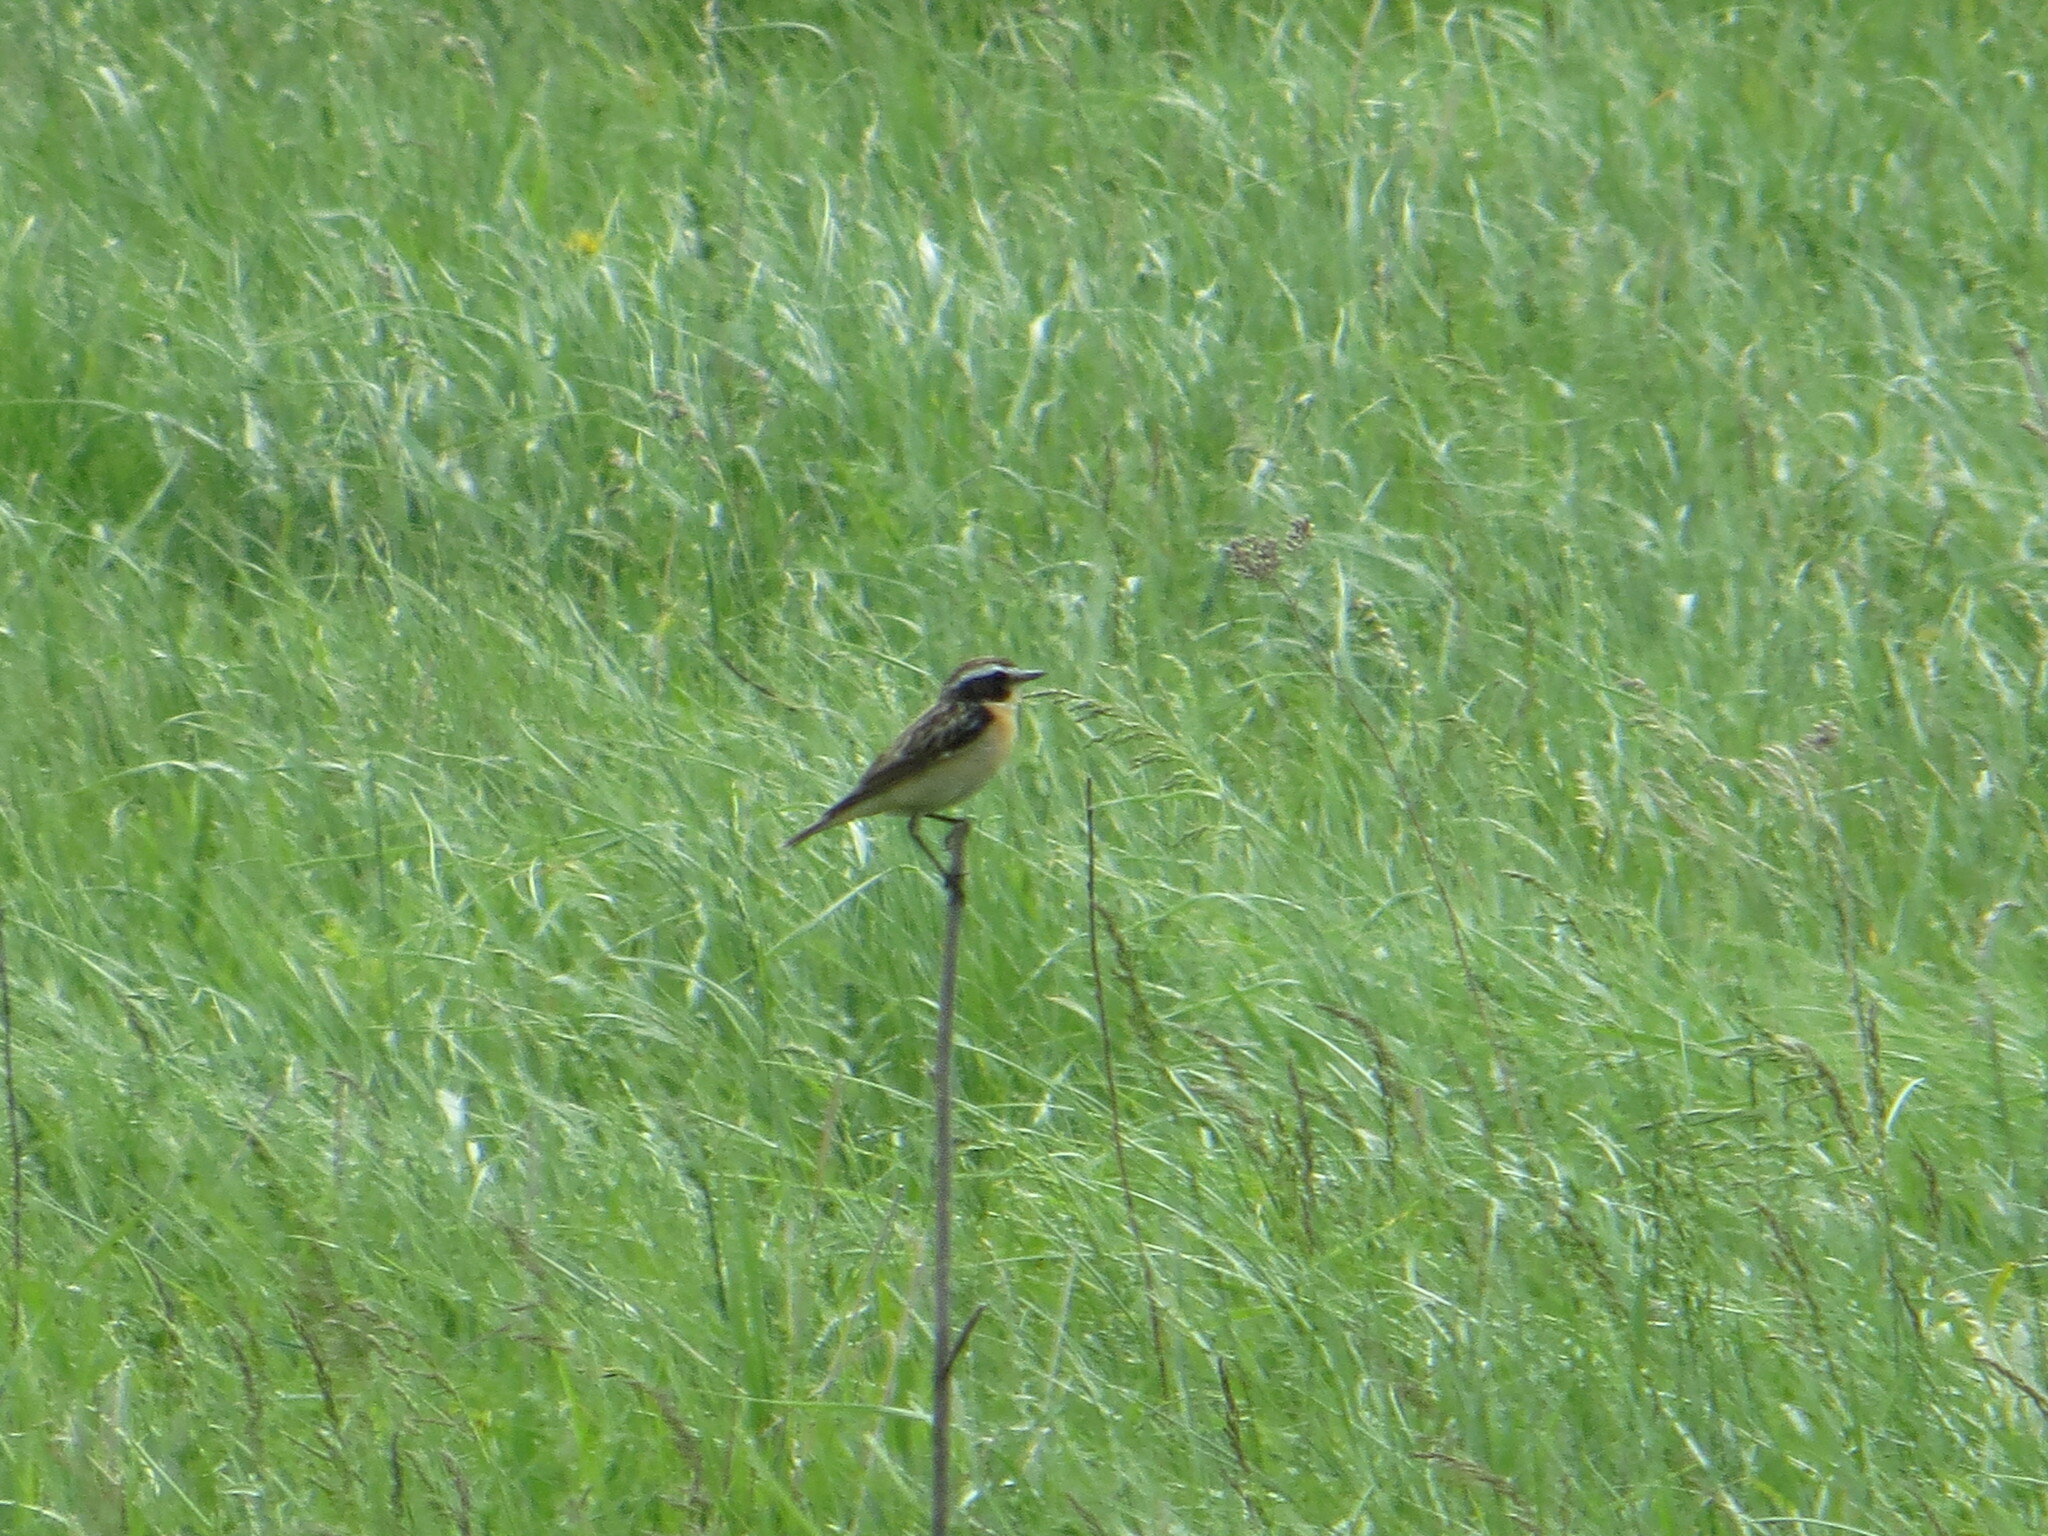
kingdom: Animalia
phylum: Chordata
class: Aves
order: Passeriformes
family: Muscicapidae
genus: Saxicola
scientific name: Saxicola rubetra
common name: Whinchat
